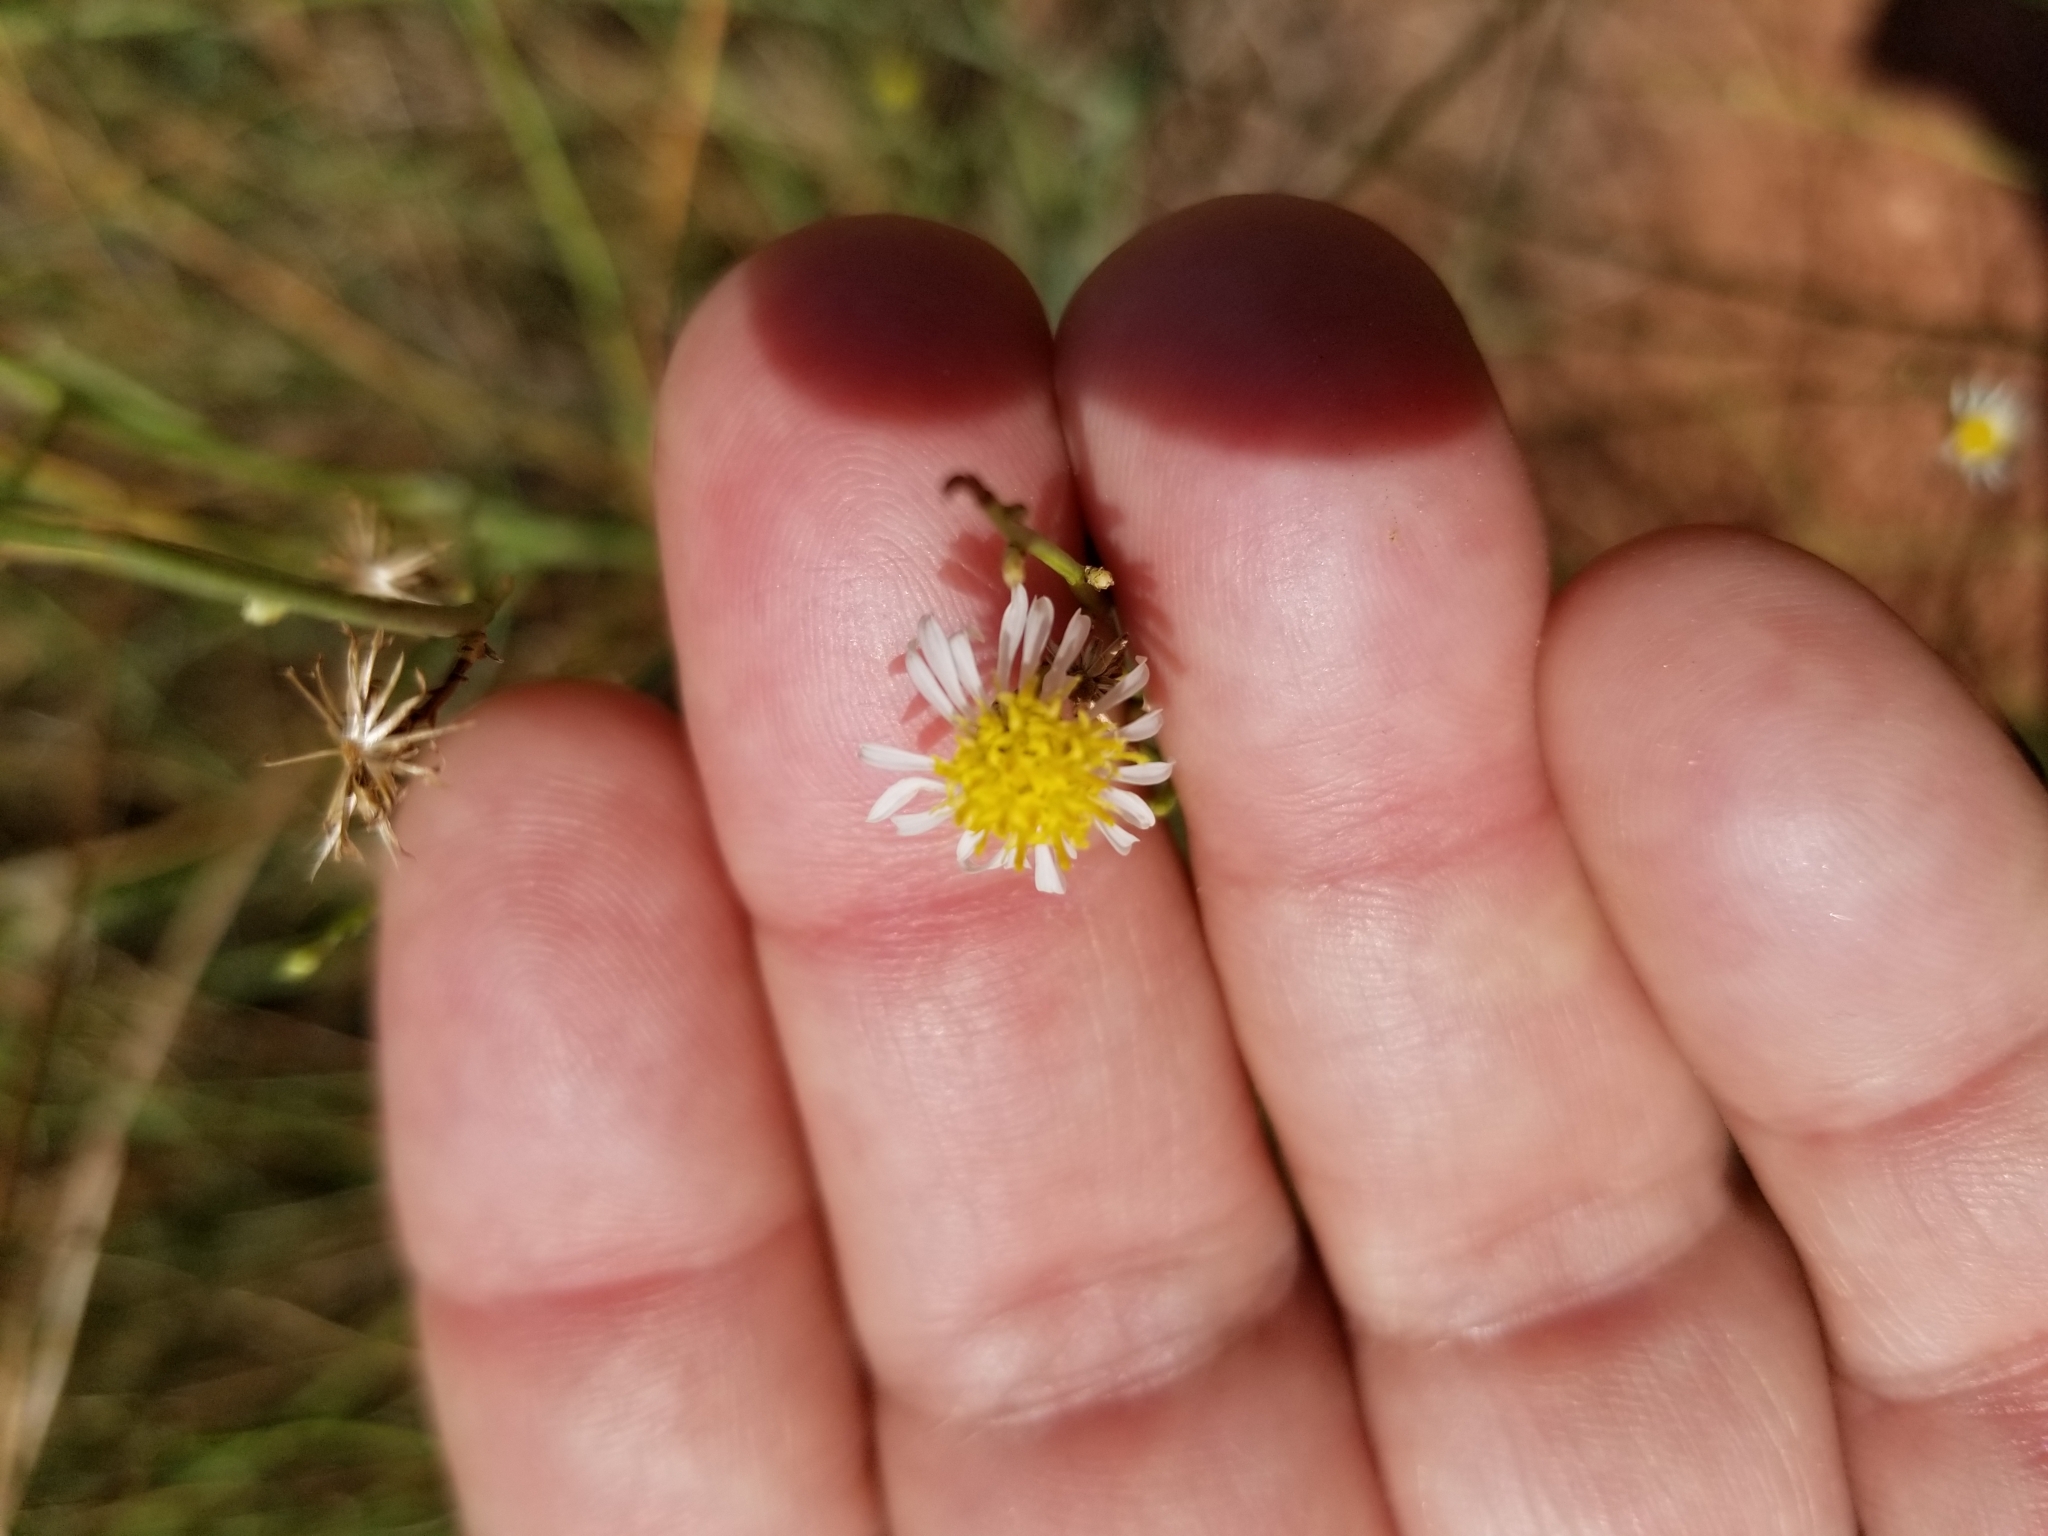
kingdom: Plantae
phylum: Tracheophyta
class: Magnoliopsida
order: Asterales
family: Asteraceae
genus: Chloracantha
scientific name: Chloracantha spinosa
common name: Mexican devilweed
